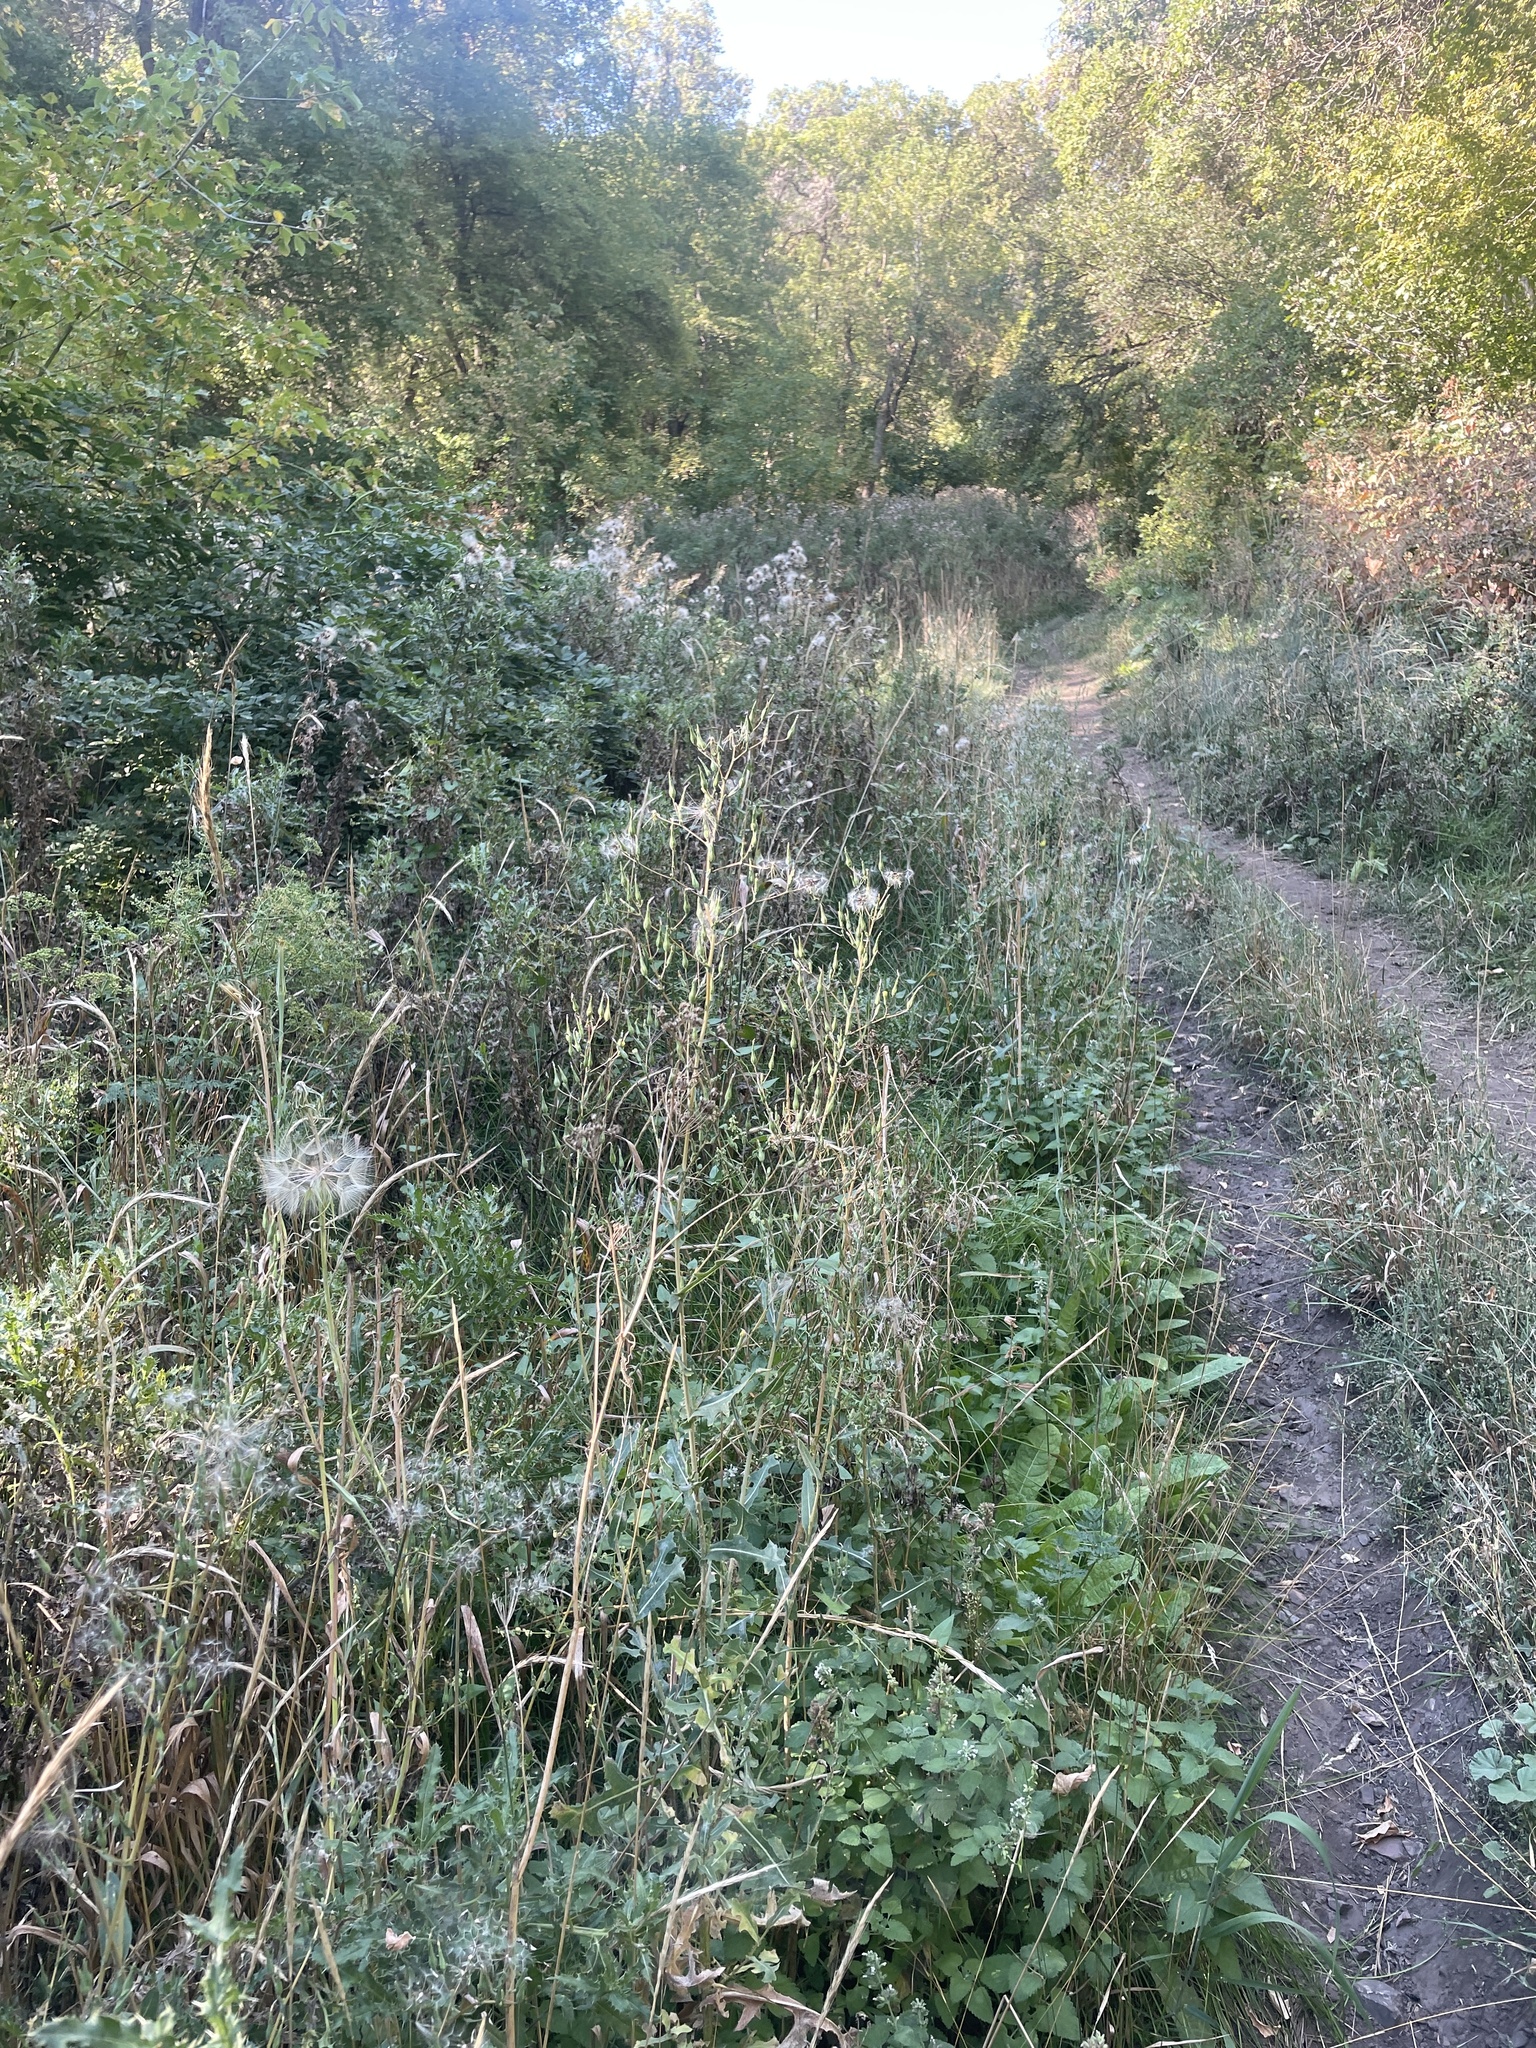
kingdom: Plantae
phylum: Tracheophyta
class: Magnoliopsida
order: Asterales
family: Asteraceae
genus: Cirsium
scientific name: Cirsium arvense
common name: Creeping thistle
